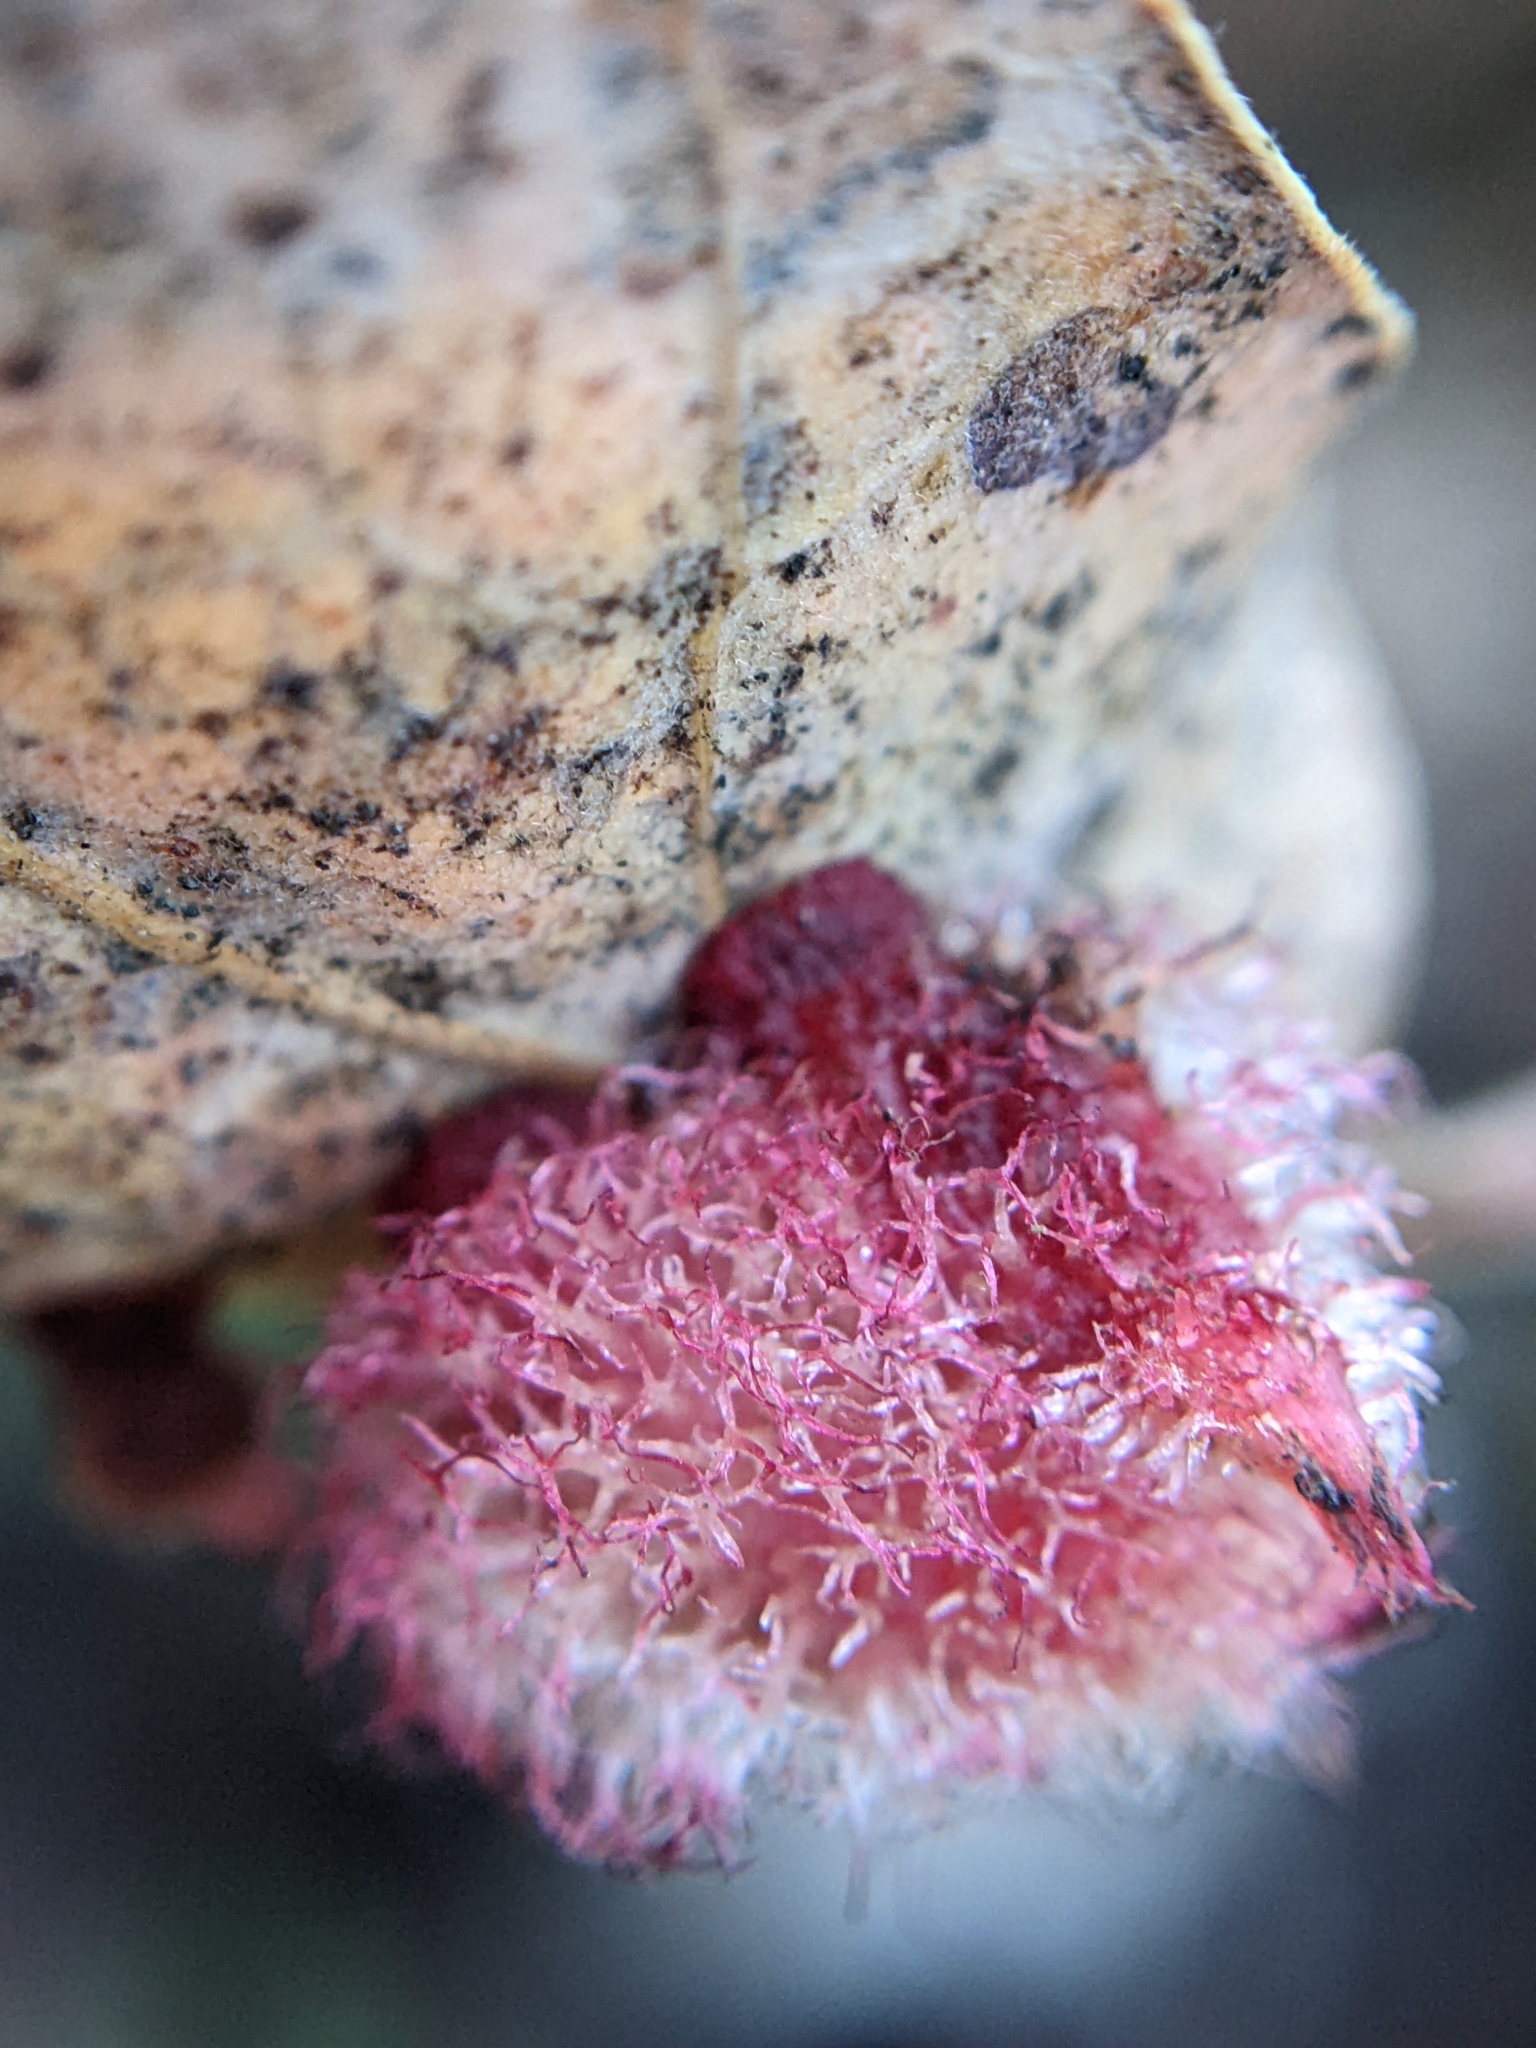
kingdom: Animalia
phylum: Arthropoda
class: Insecta
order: Hymenoptera
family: Cynipidae
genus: Andricus
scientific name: Andricus
